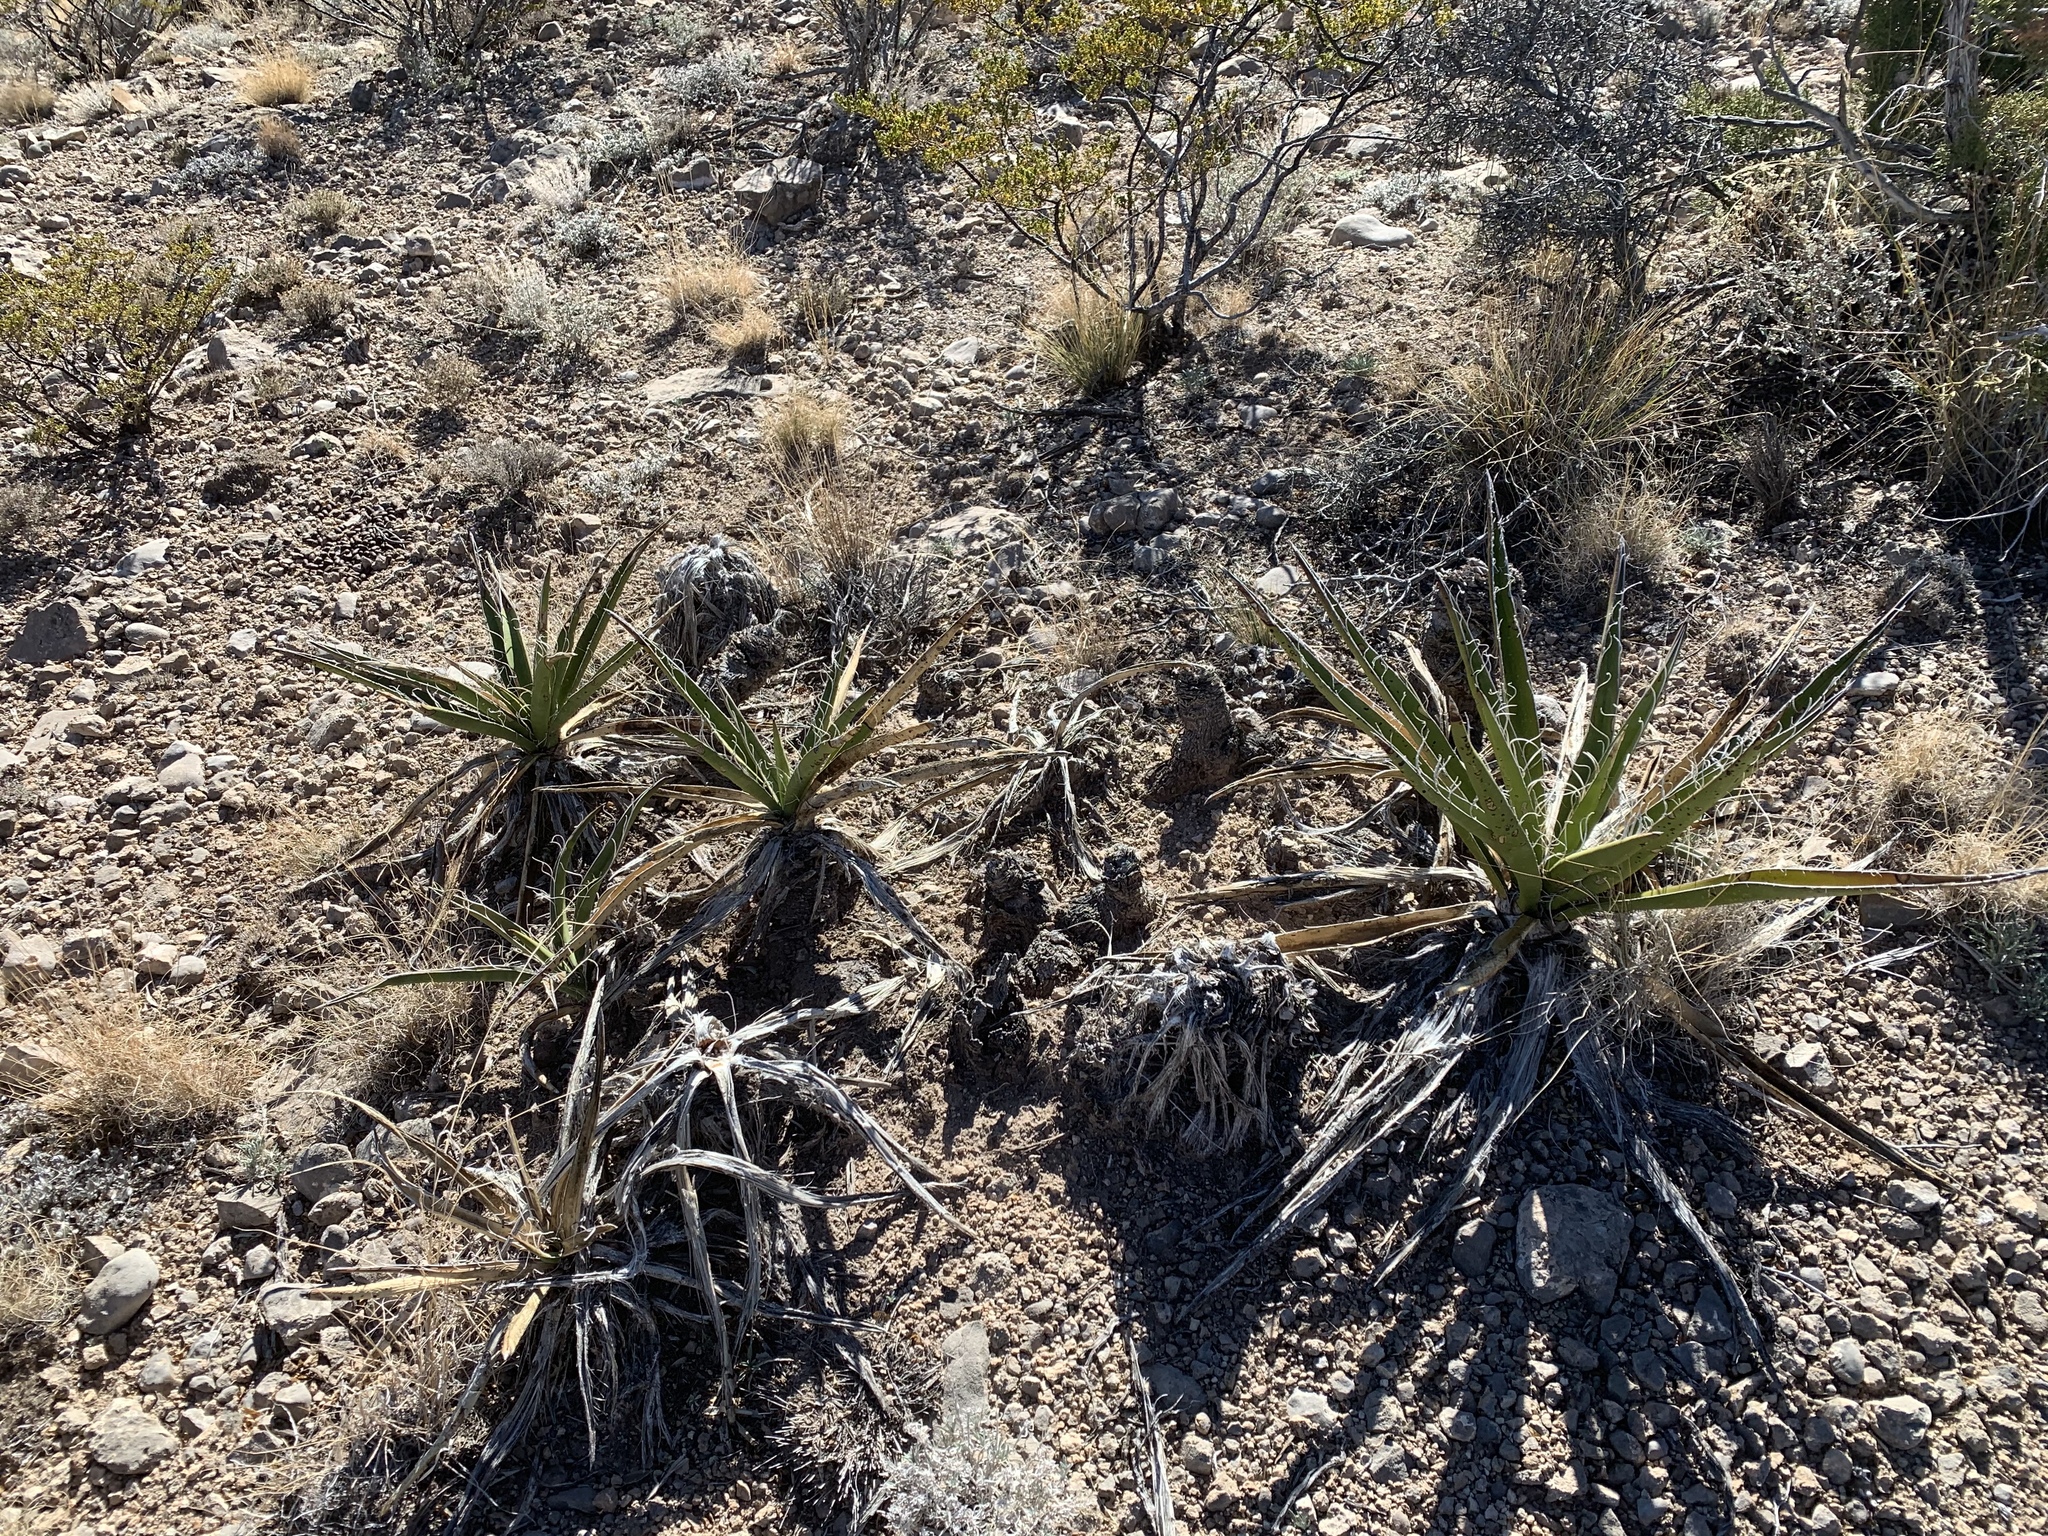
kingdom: Plantae
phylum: Tracheophyta
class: Liliopsida
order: Asparagales
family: Asparagaceae
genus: Yucca
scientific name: Yucca baccata
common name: Banana yucca
